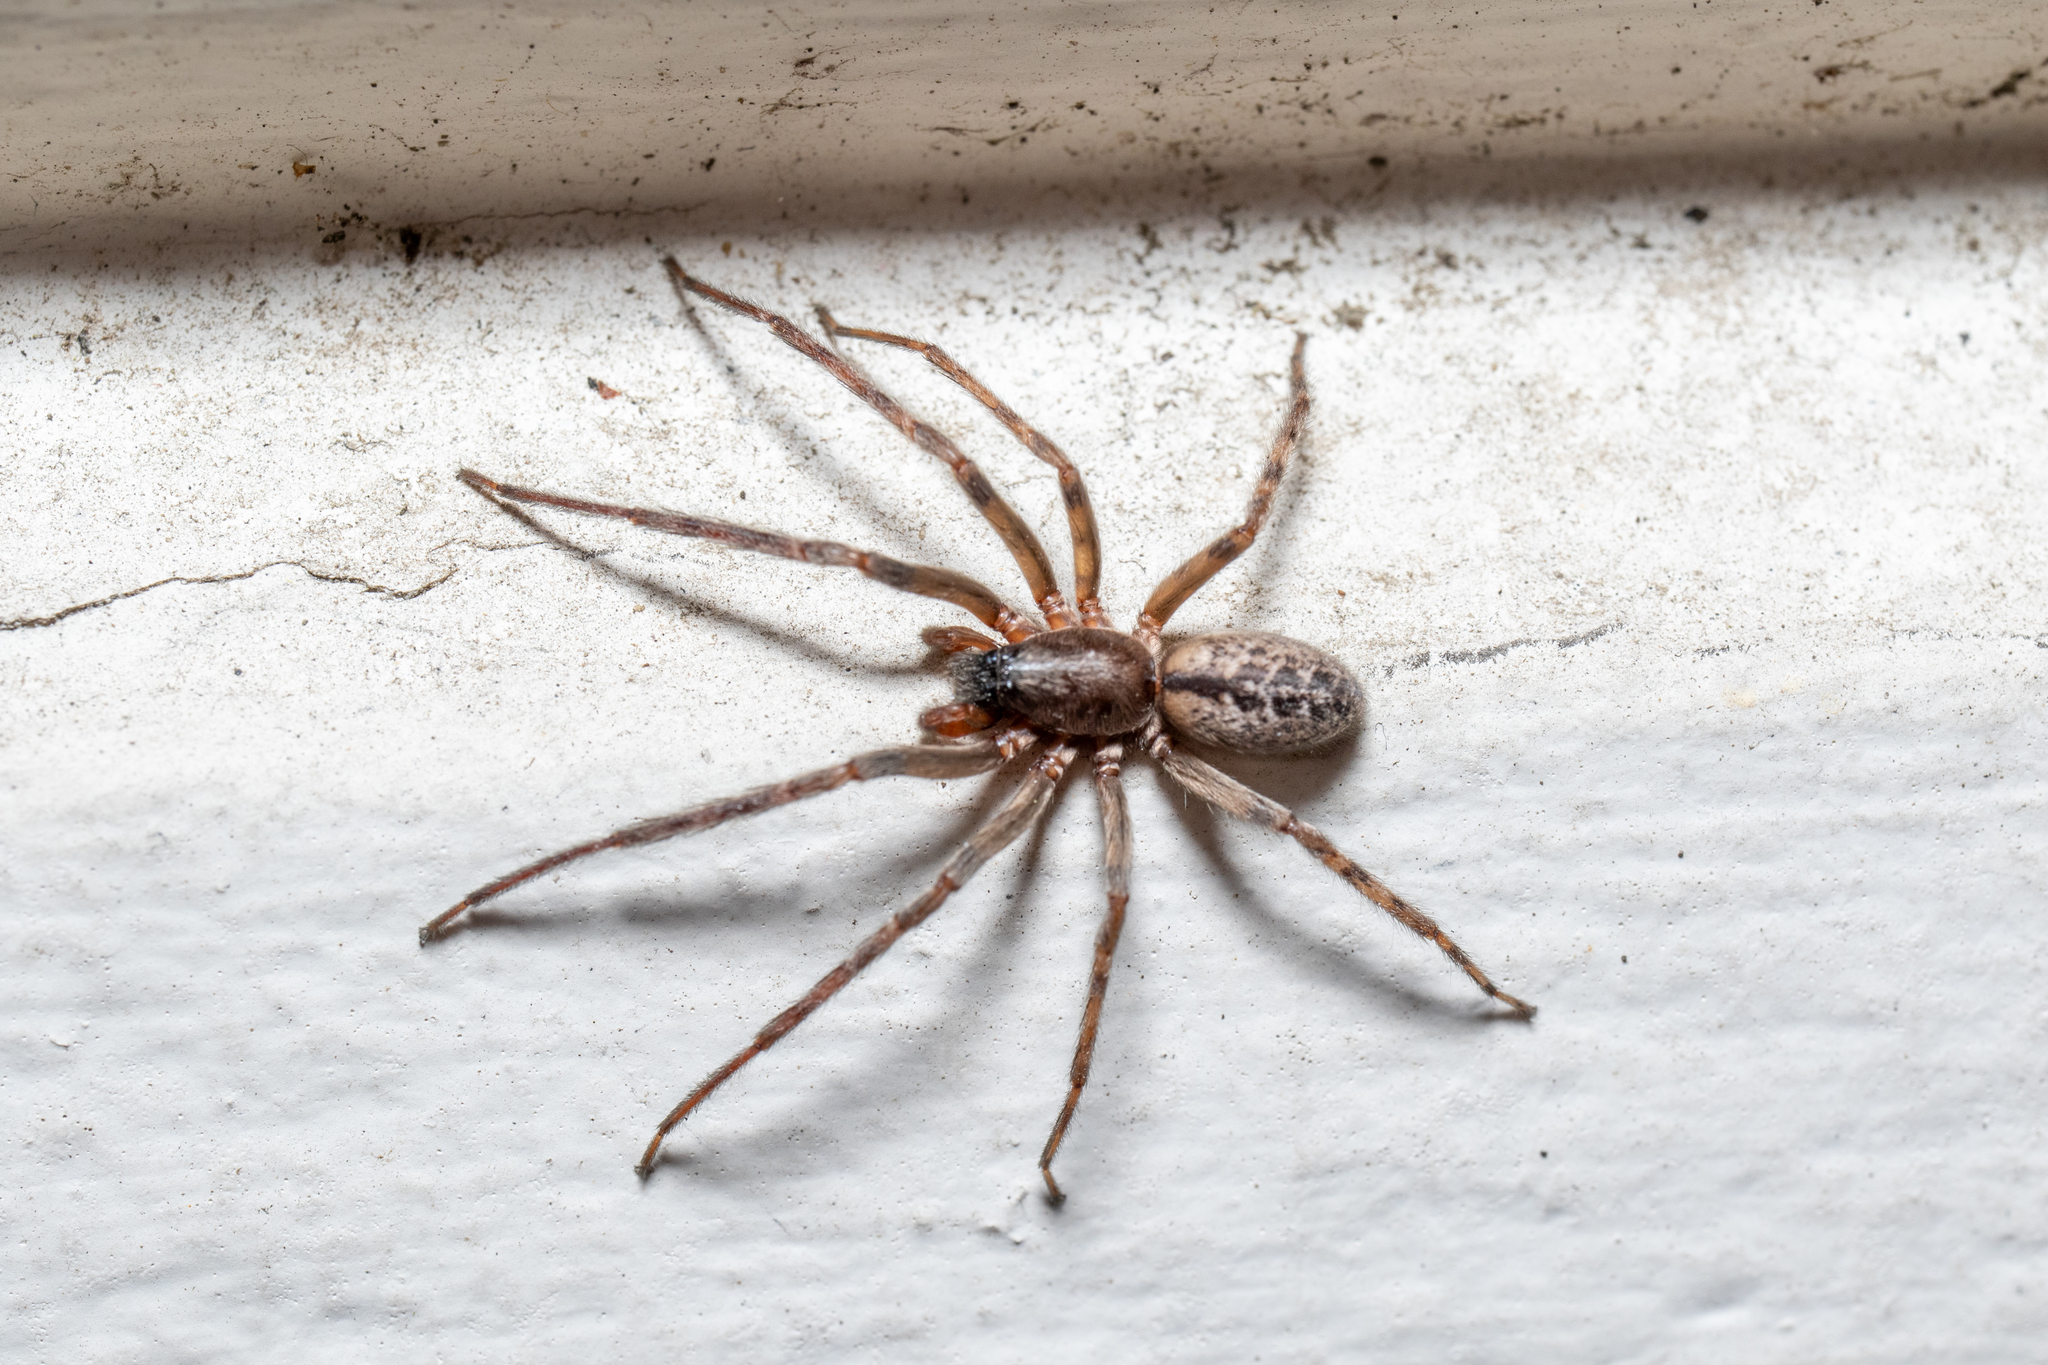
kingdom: Animalia
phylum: Arthropoda
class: Arachnida
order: Araneae
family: Segestriidae
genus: Segestria
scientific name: Segestria bavarica
